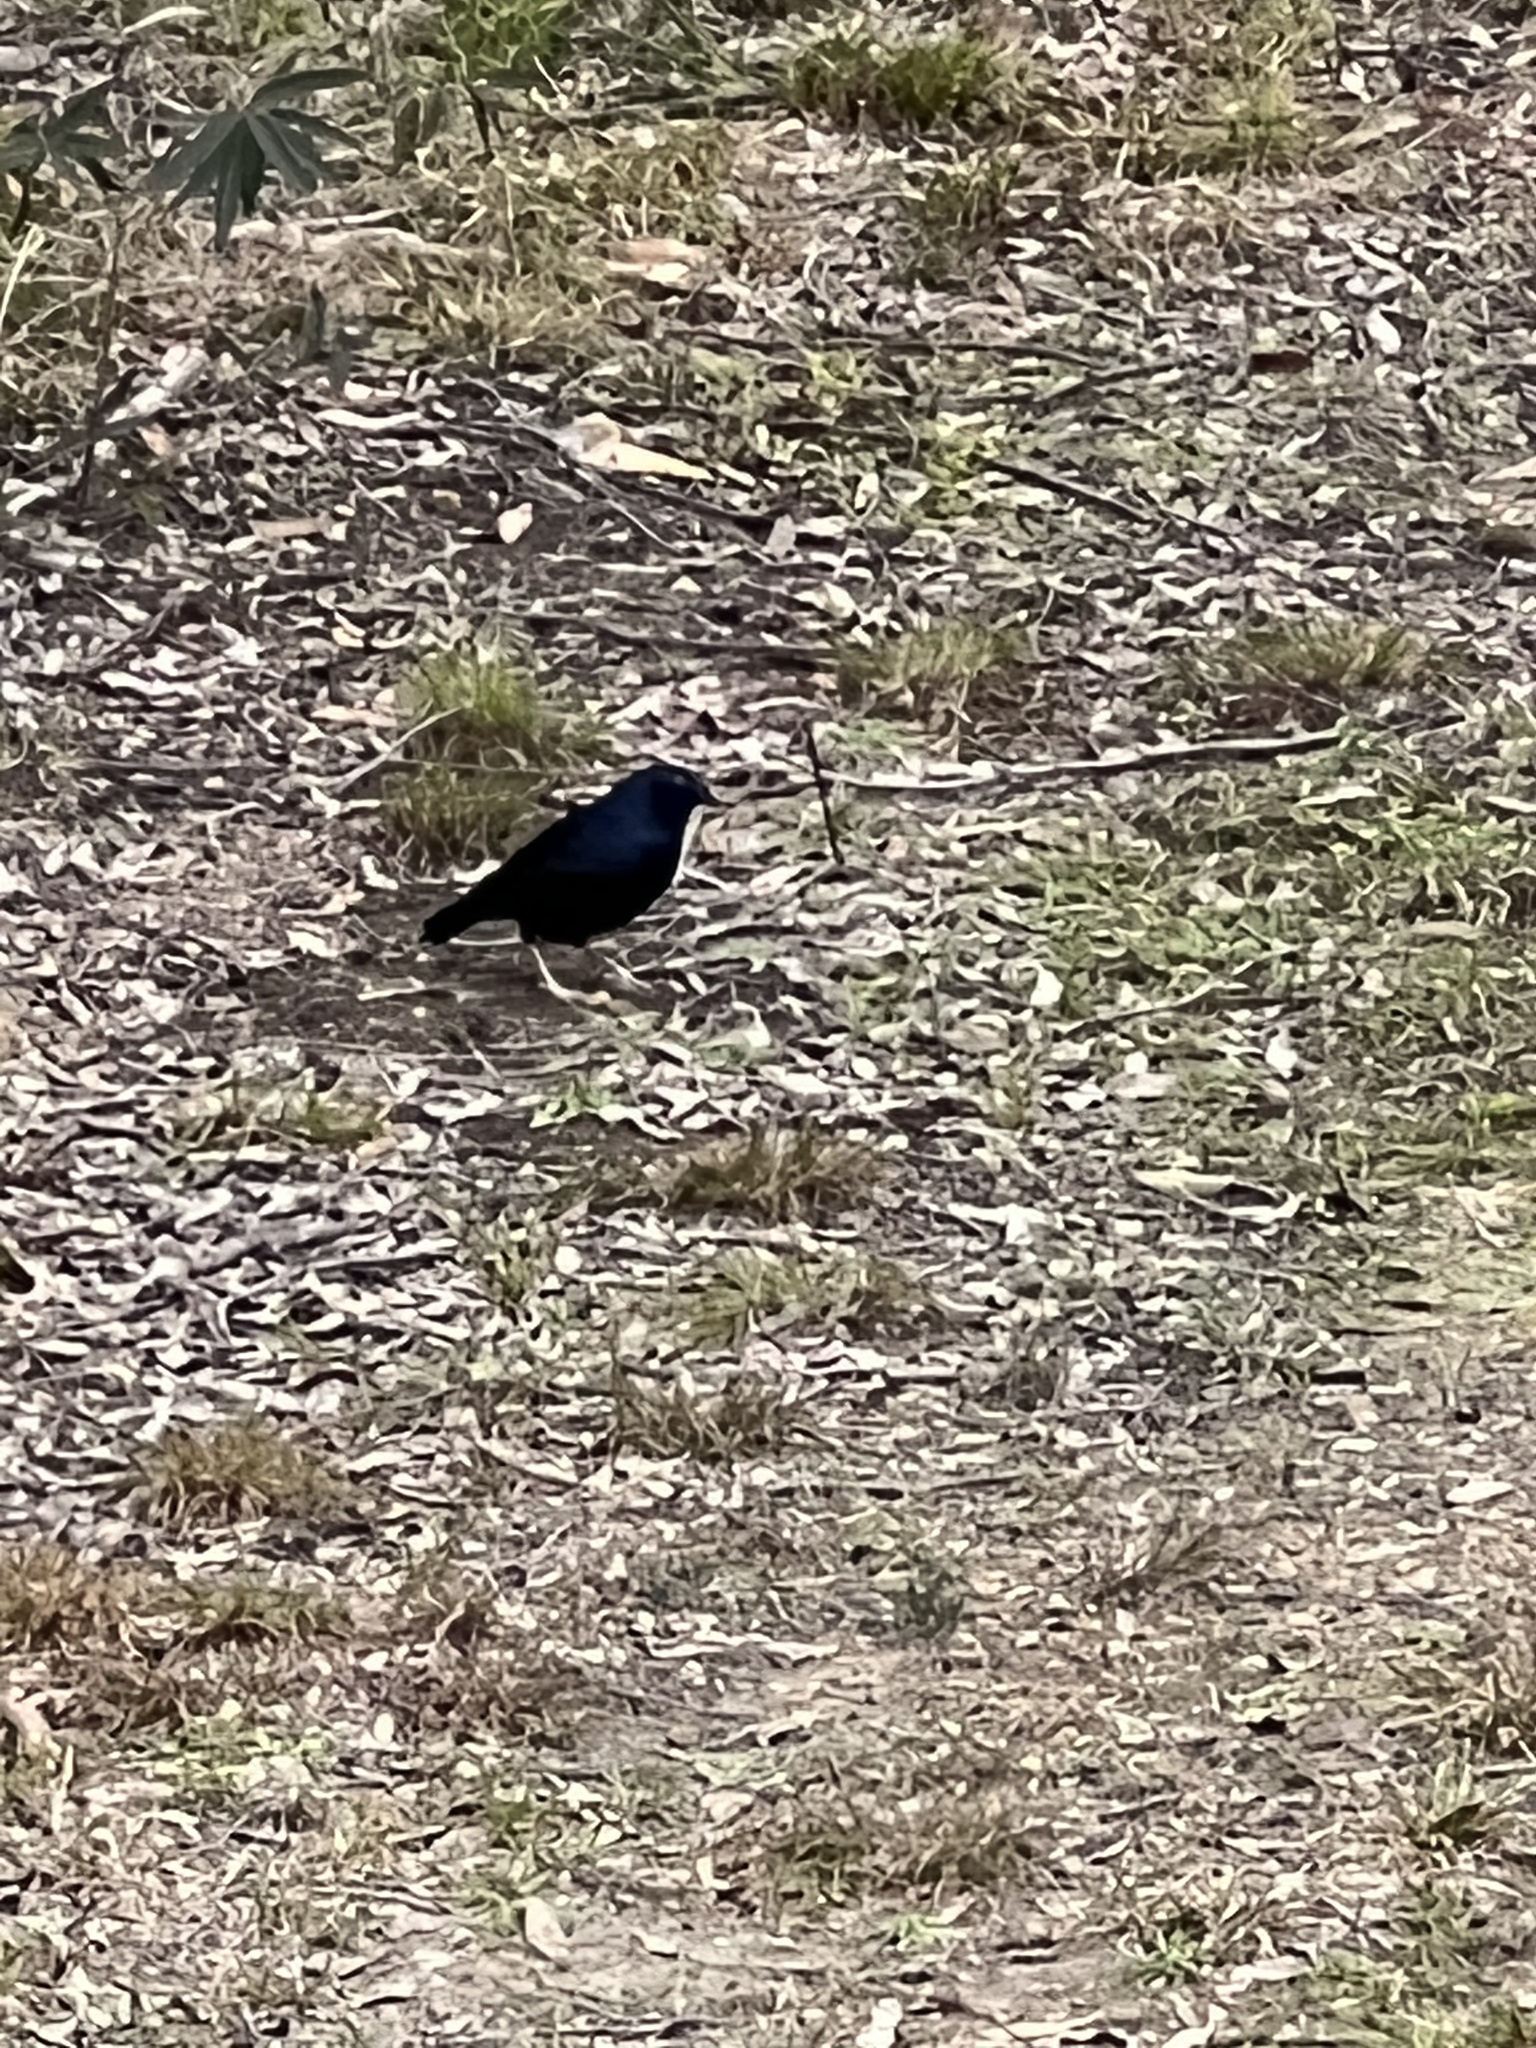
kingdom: Animalia
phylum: Chordata
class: Aves
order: Passeriformes
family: Ptilonorhynchidae
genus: Ptilonorhynchus
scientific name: Ptilonorhynchus violaceus
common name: Satin bowerbird
